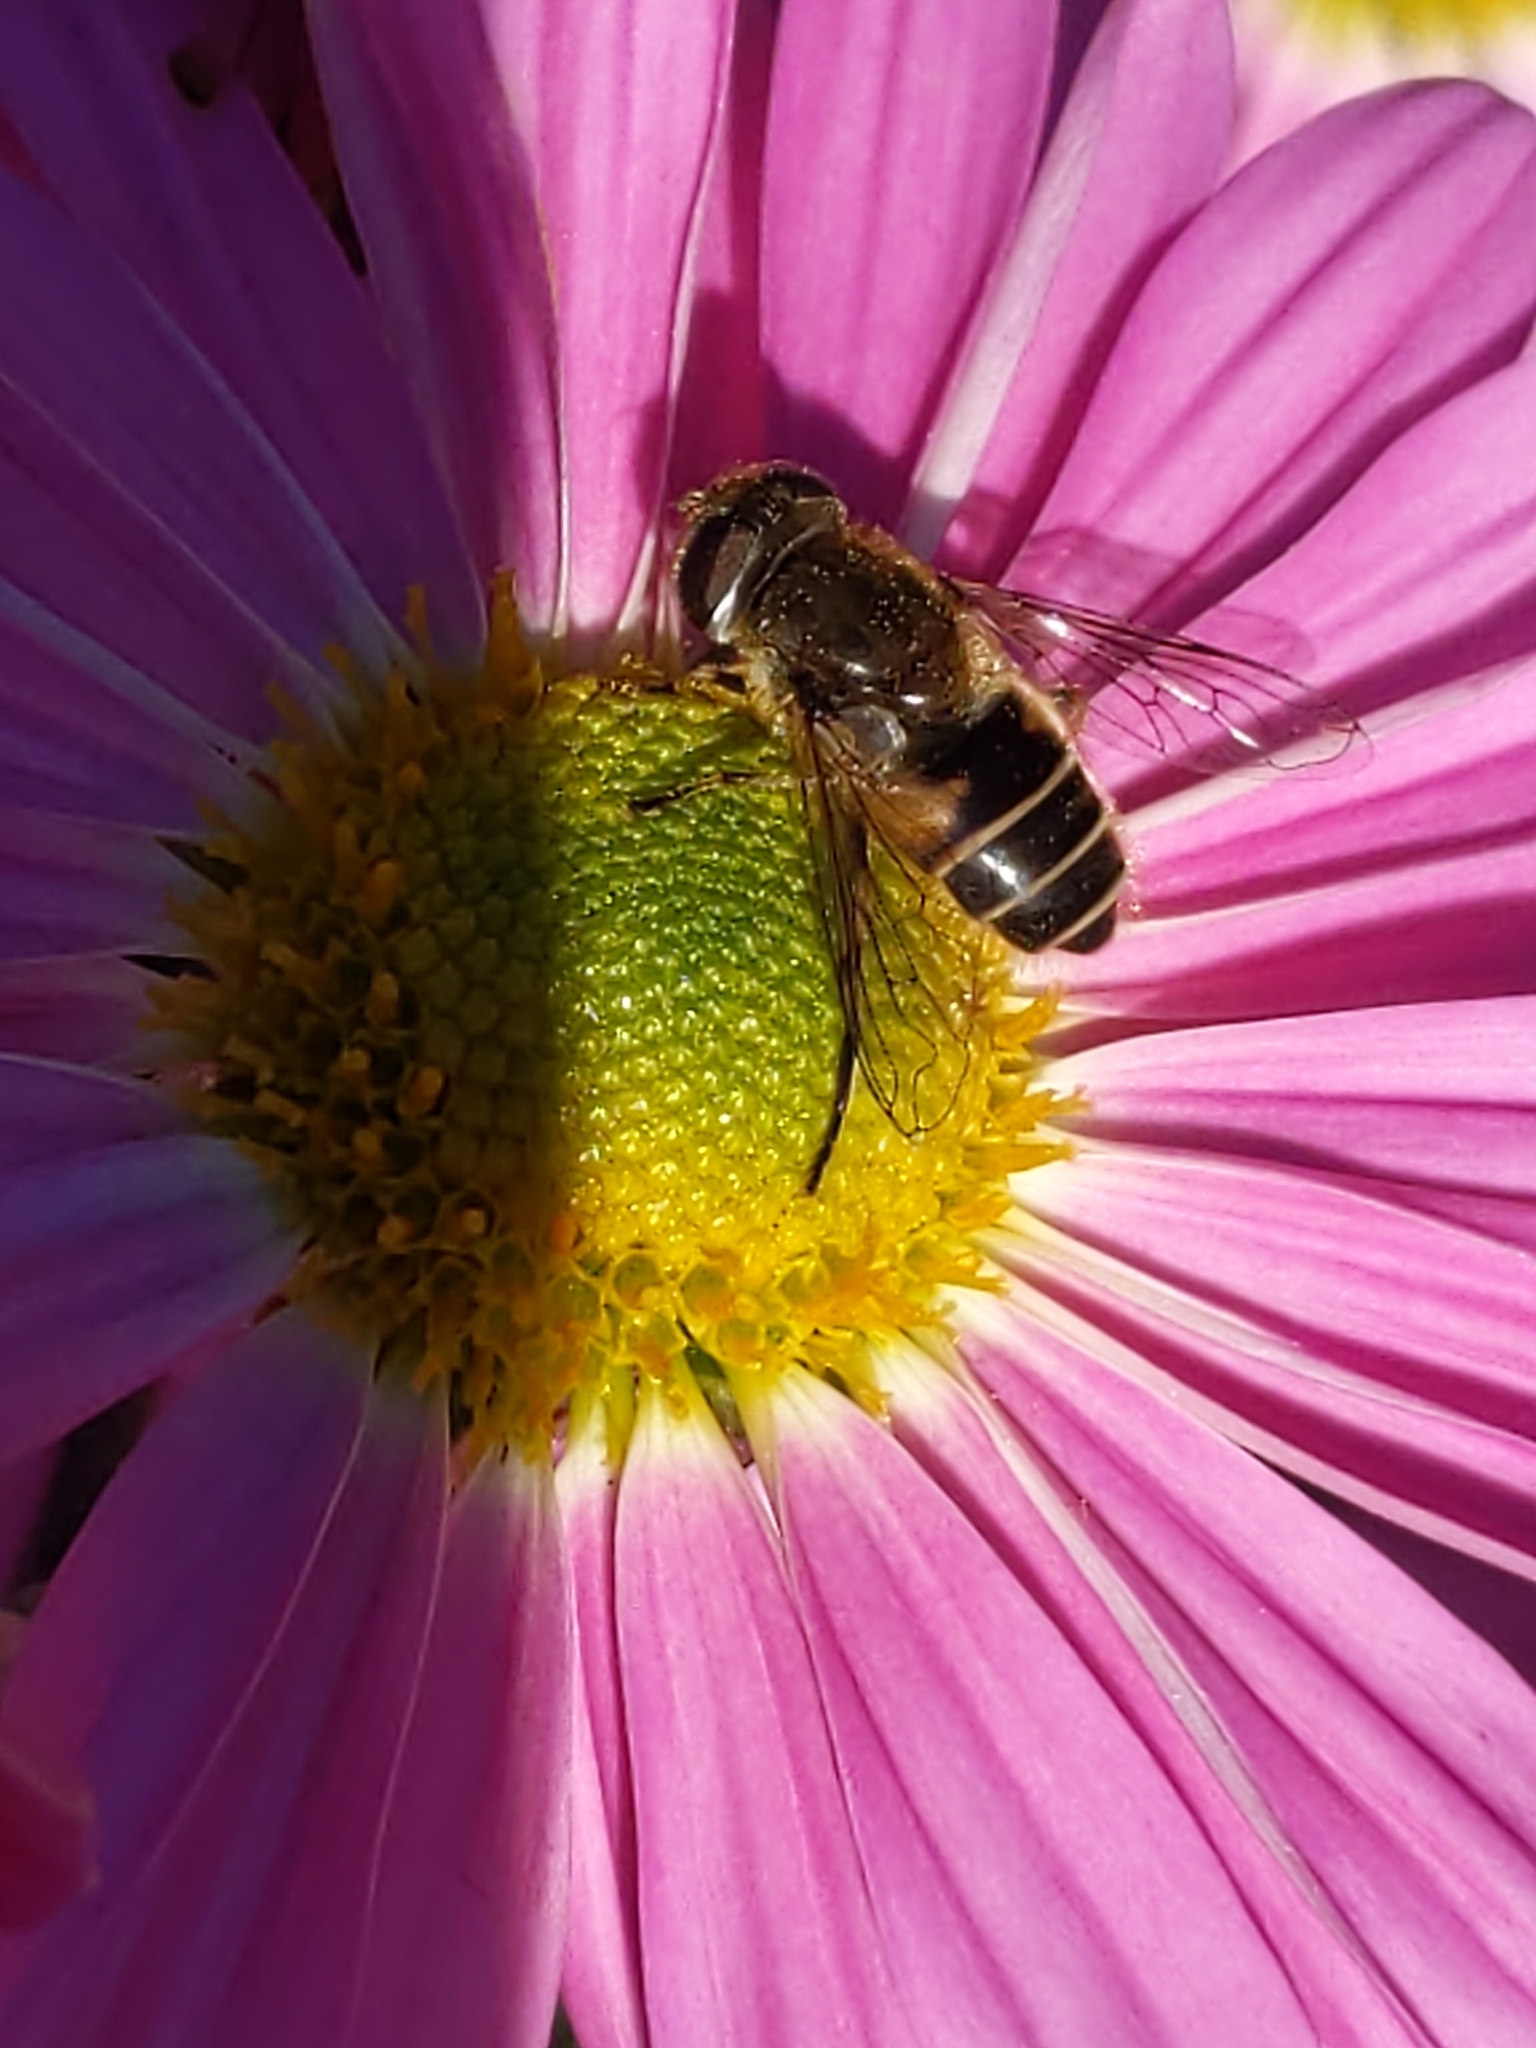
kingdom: Animalia
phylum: Arthropoda
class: Insecta
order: Diptera
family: Syrphidae
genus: Eristalis
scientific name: Eristalis arbustorum
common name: Hover fly
